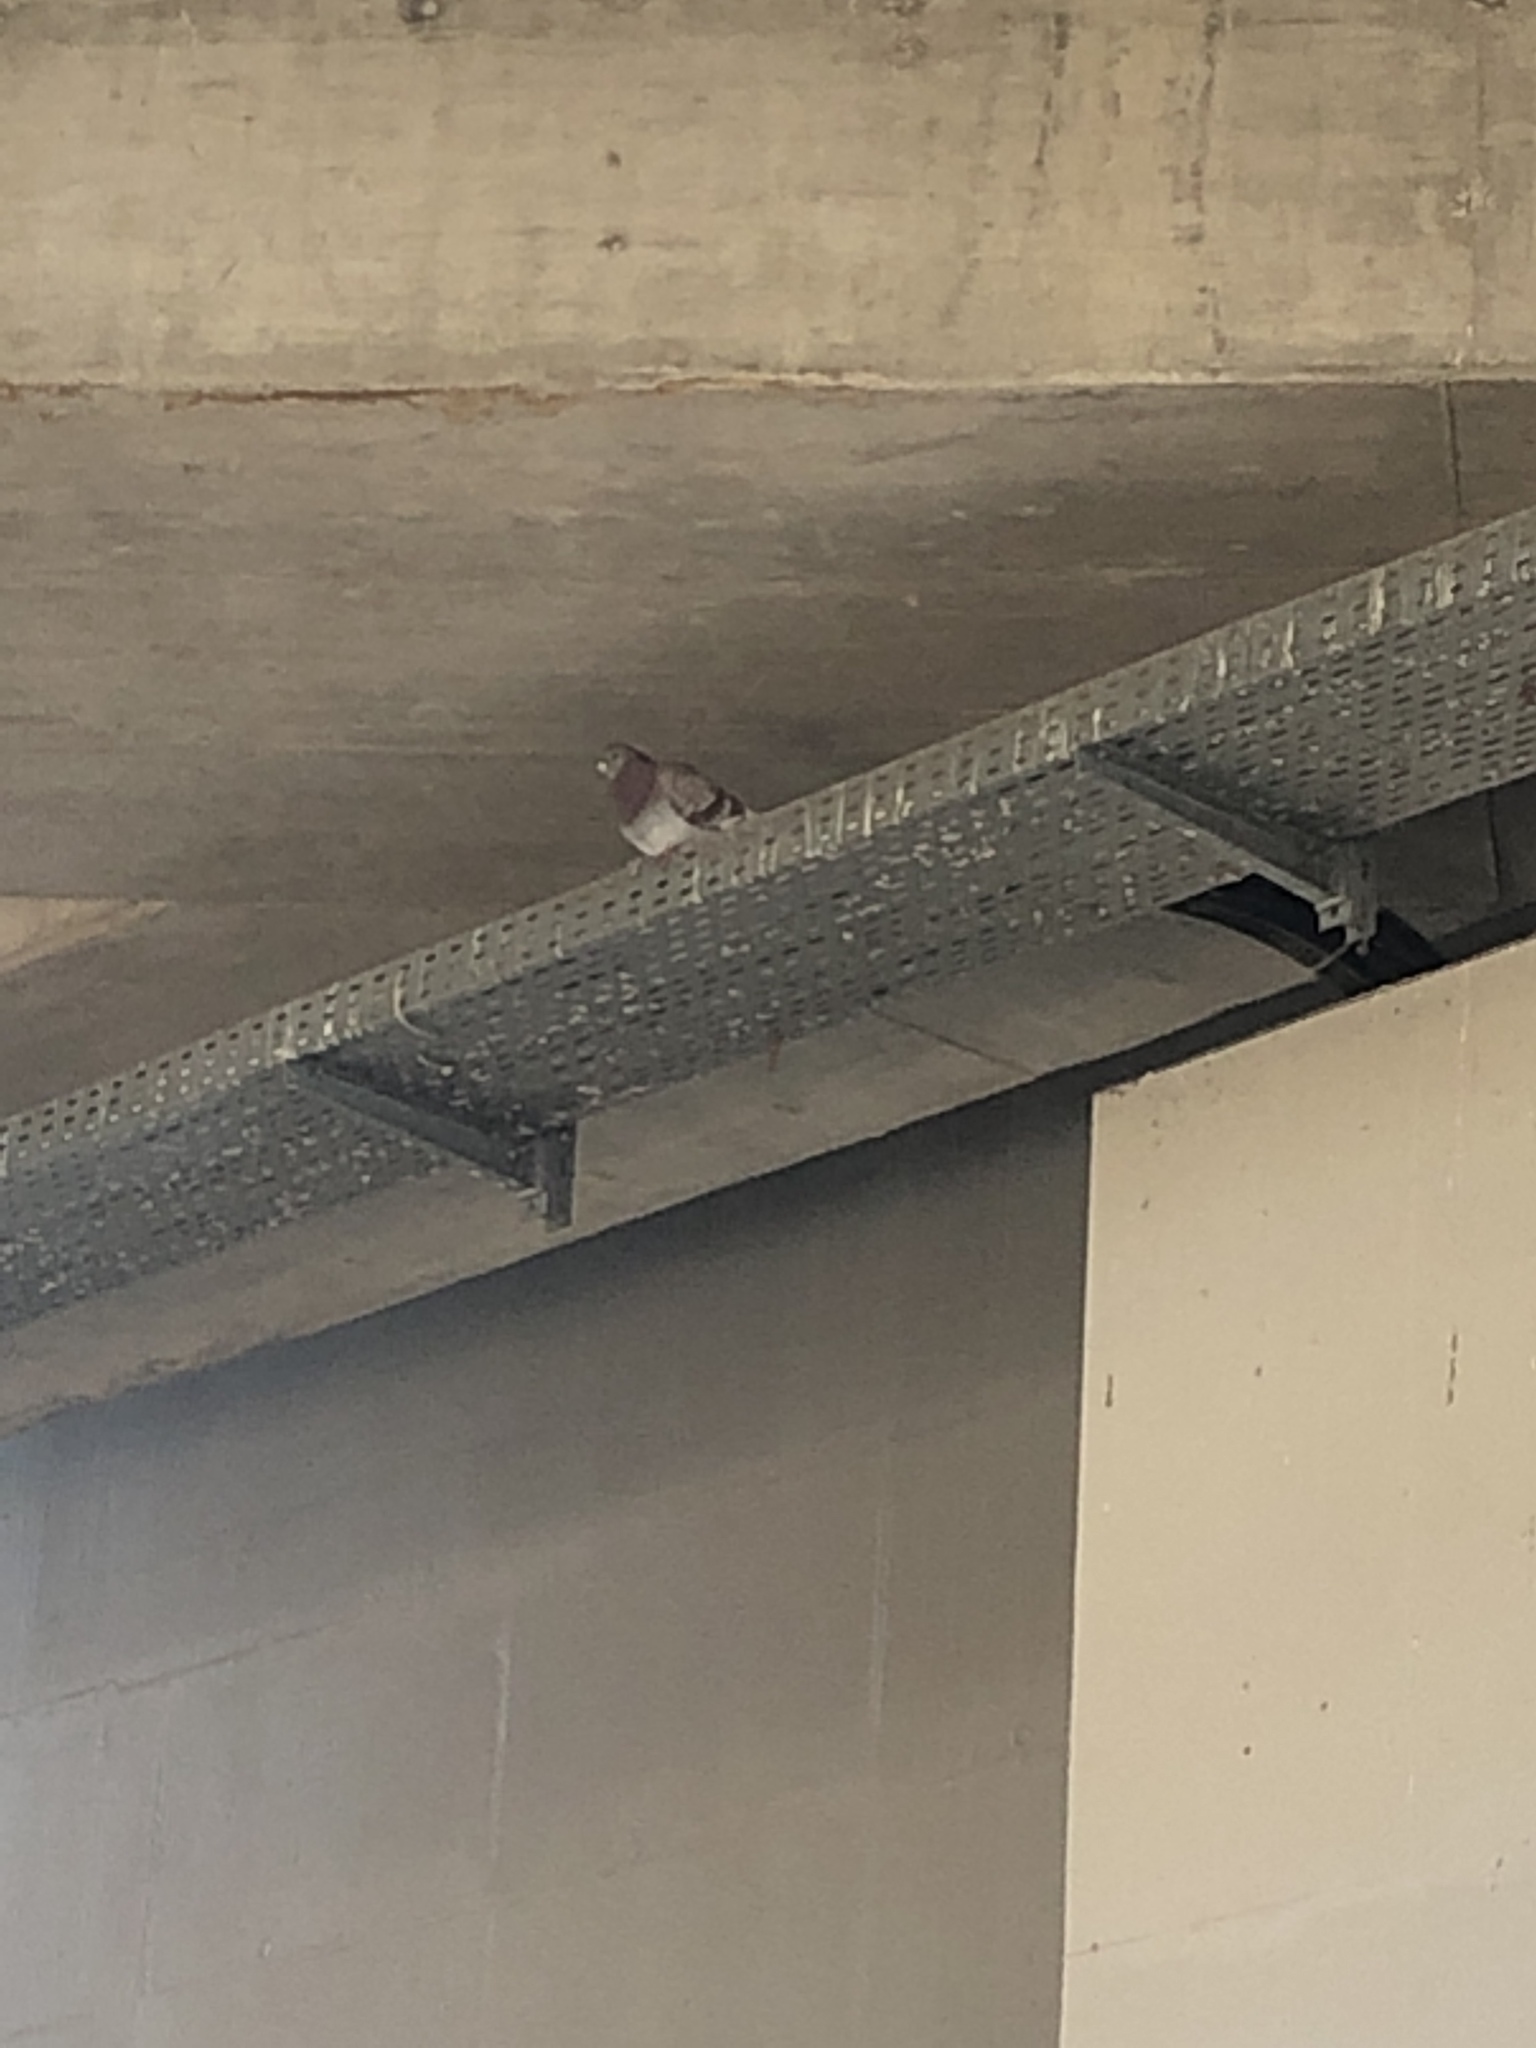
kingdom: Animalia
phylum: Chordata
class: Aves
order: Columbiformes
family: Columbidae
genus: Columba
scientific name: Columba livia
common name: Rock pigeon
